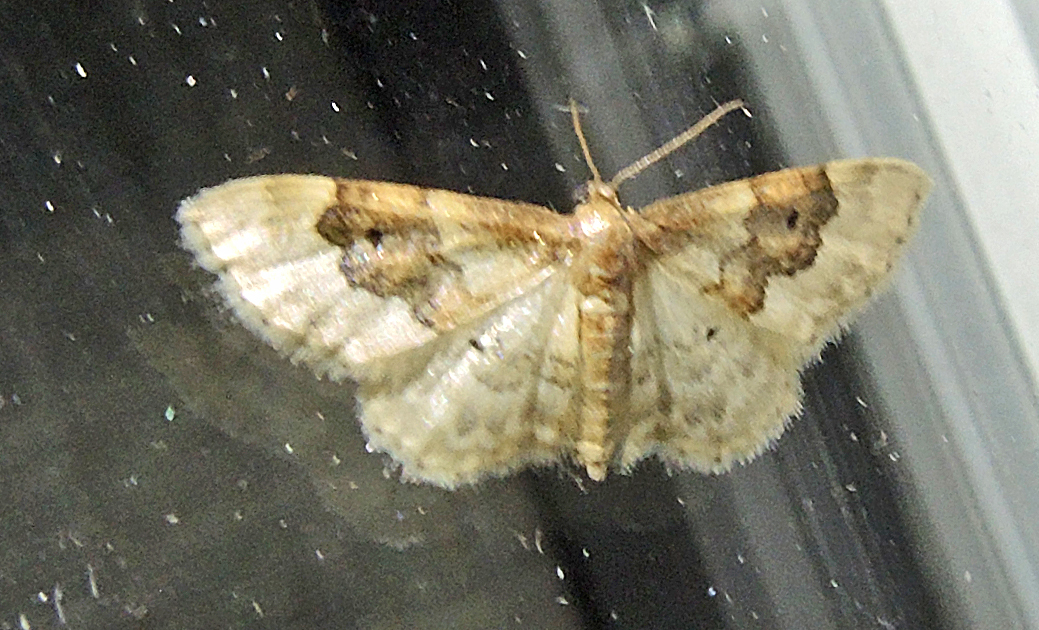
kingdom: Animalia
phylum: Arthropoda
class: Insecta
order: Lepidoptera
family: Geometridae
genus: Idaea
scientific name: Idaea rusticata
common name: Least carpet
